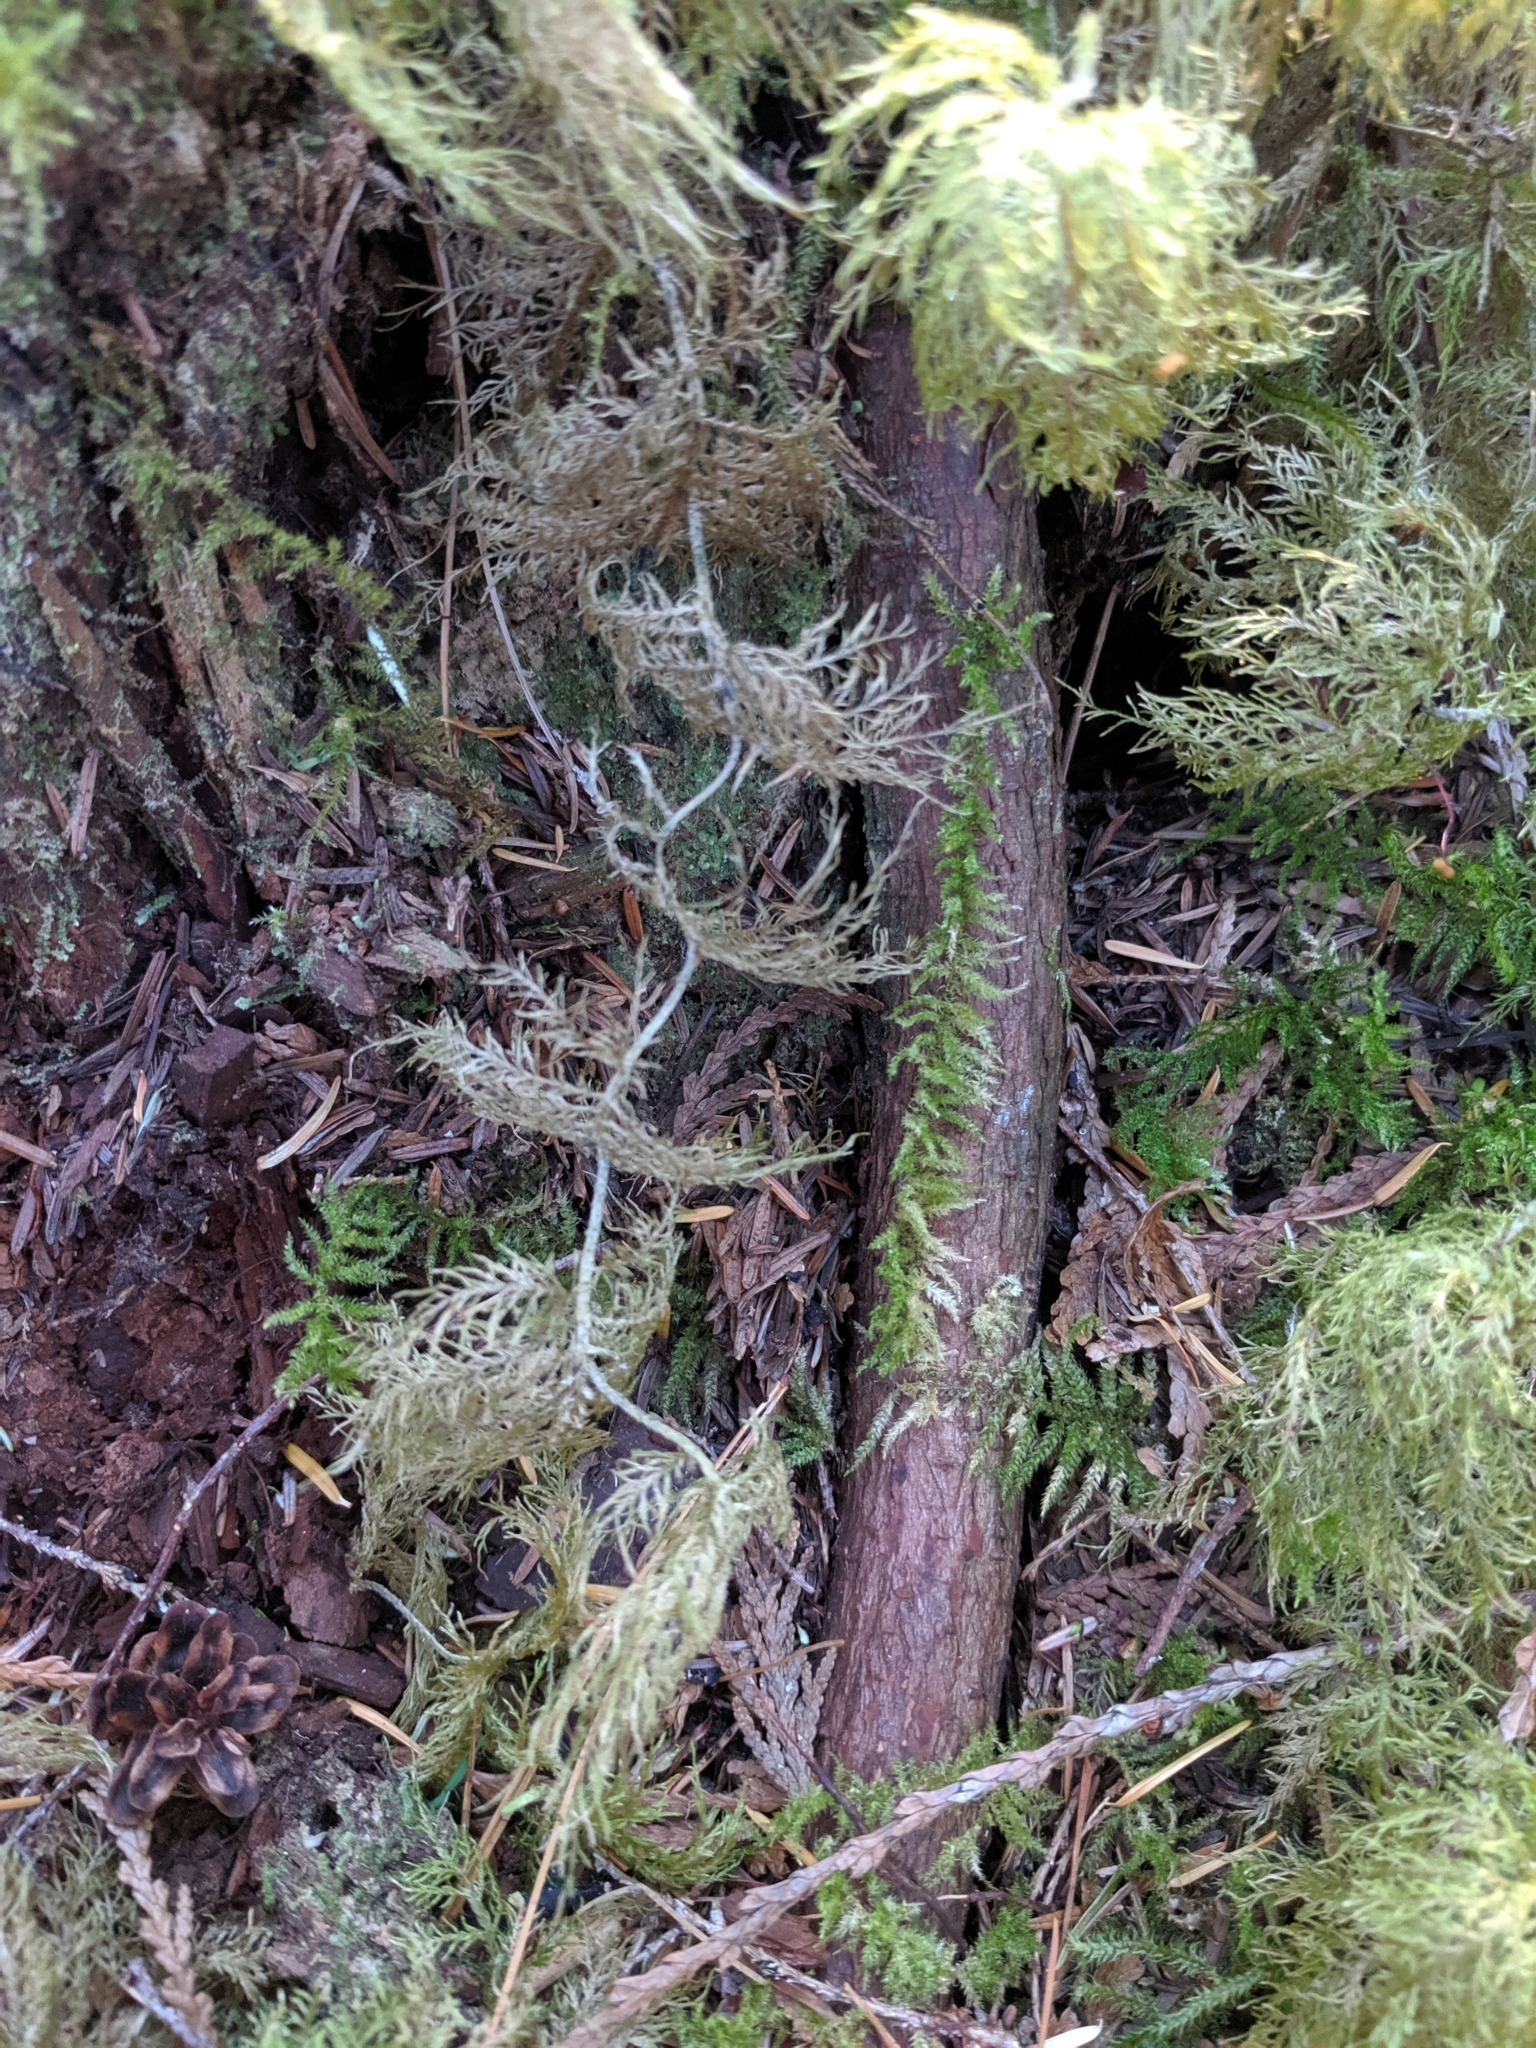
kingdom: Plantae
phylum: Bryophyta
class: Bryopsida
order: Hypnales
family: Hylocomiaceae
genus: Hylocomium
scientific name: Hylocomium splendens
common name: Stairstep moss
